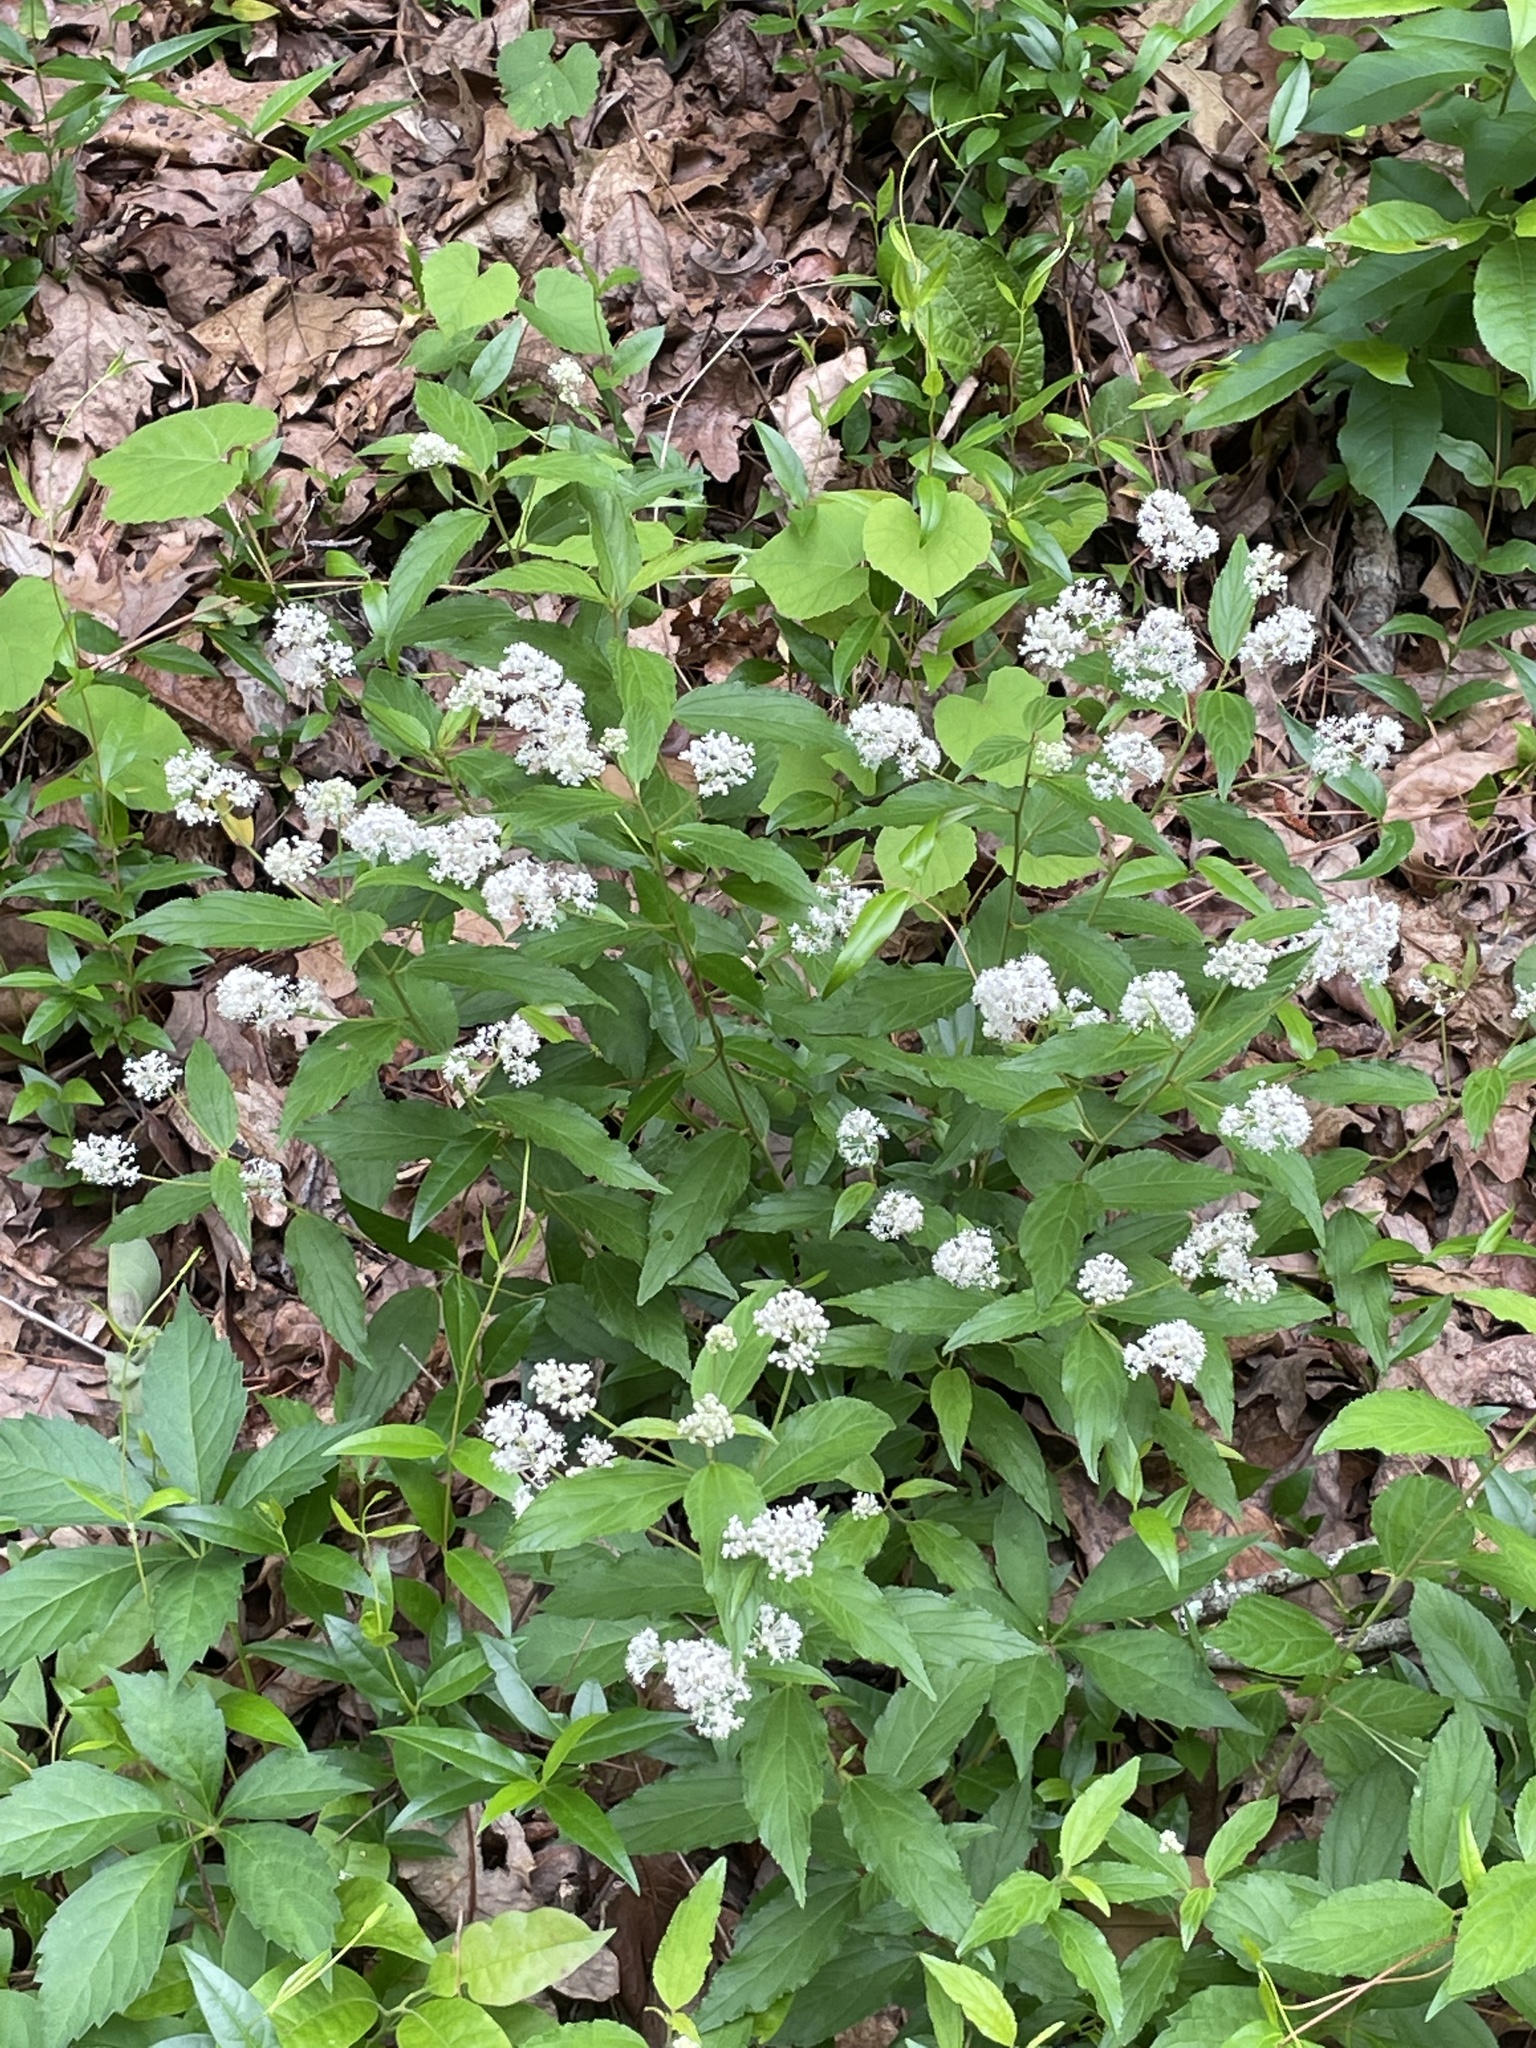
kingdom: Plantae
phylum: Tracheophyta
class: Magnoliopsida
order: Rosales
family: Rhamnaceae
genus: Ceanothus
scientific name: Ceanothus americanus
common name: Redroot
